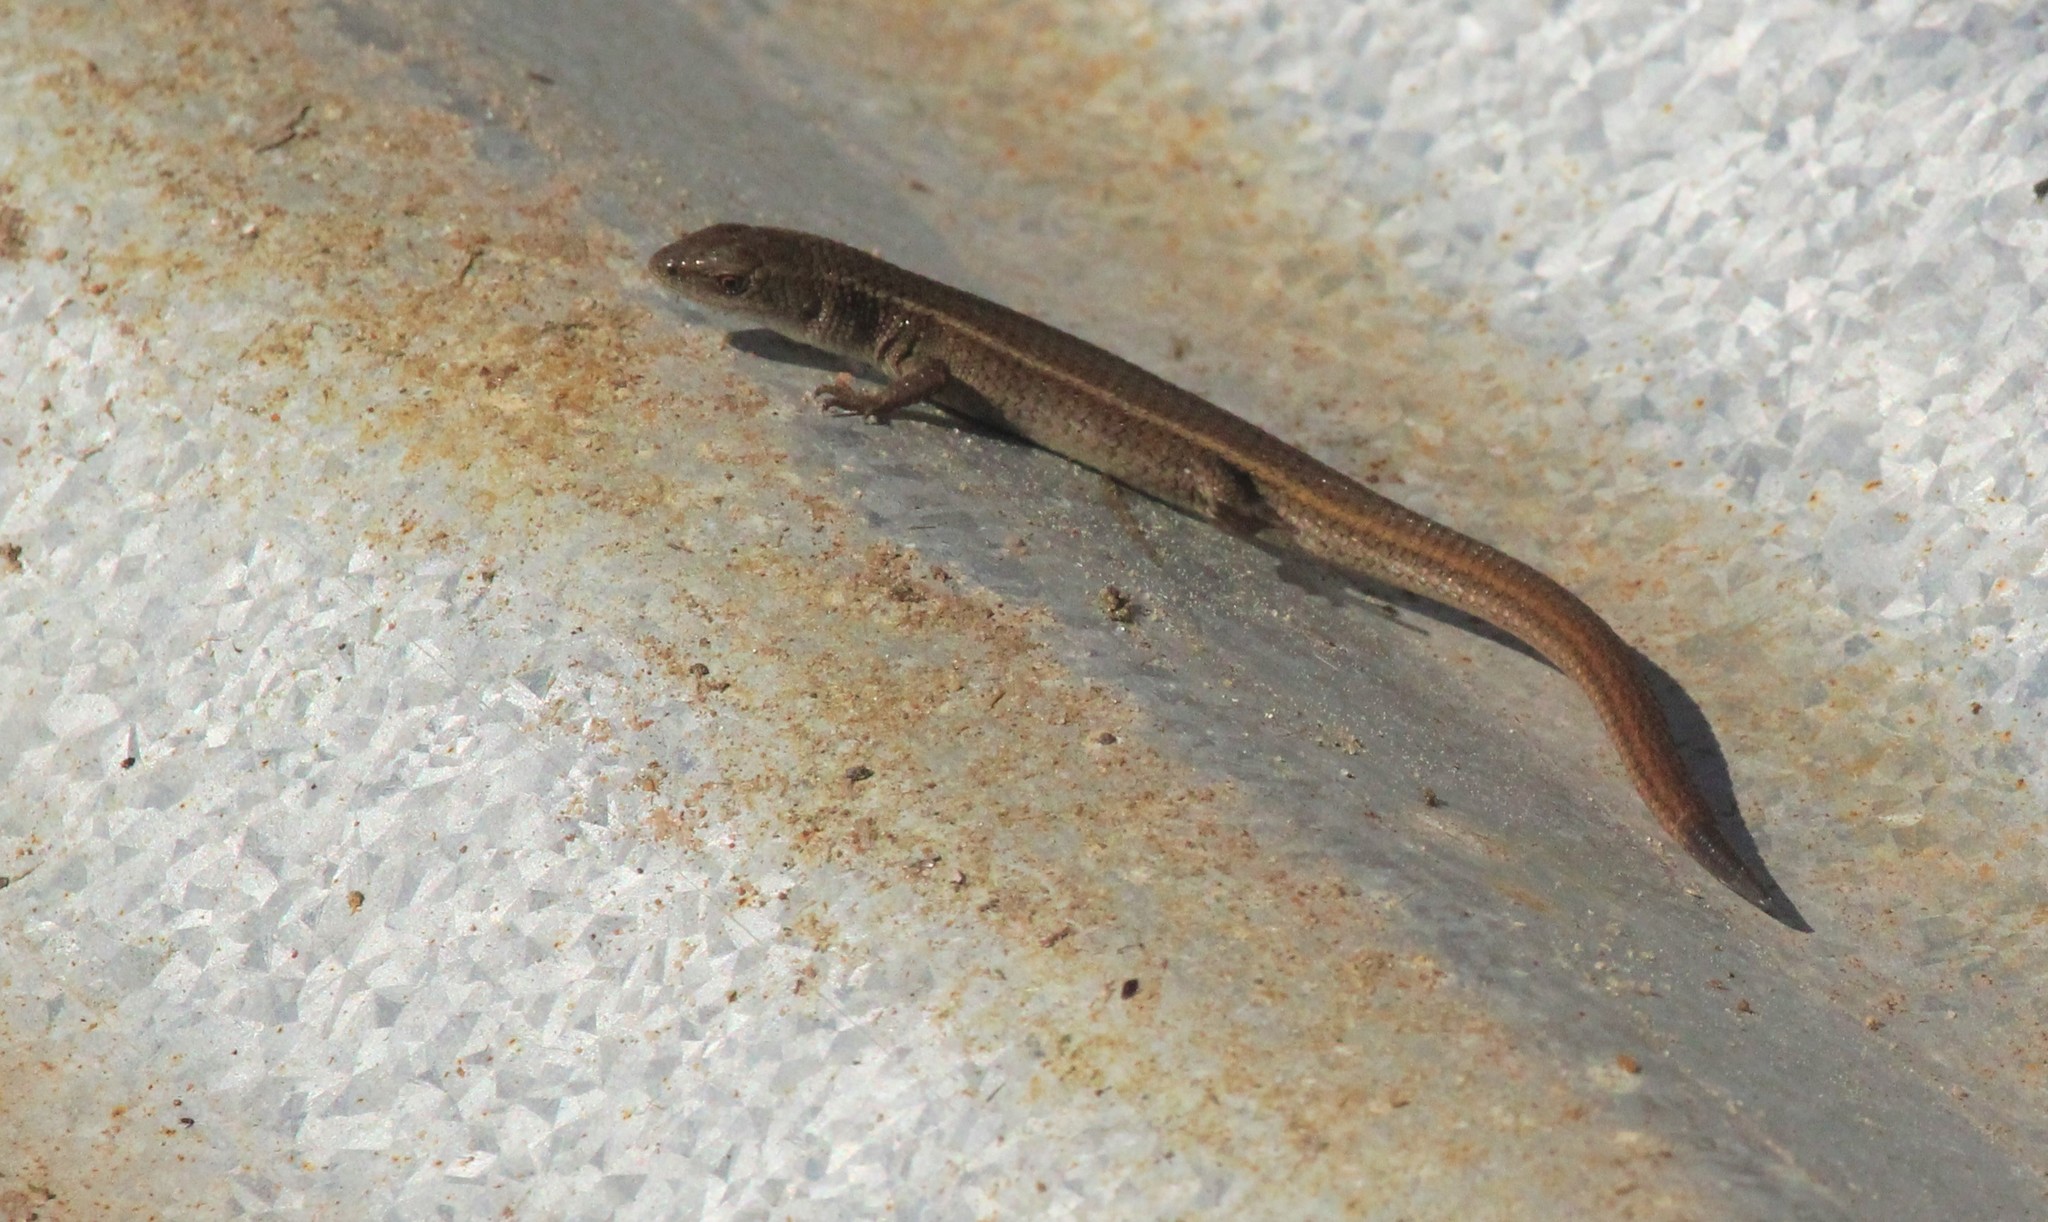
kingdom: Animalia
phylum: Chordata
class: Squamata
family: Gymnophthalmidae
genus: Cercosaura
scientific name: Cercosaura schreibersii
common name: Schreibers' many-fingered teiid
